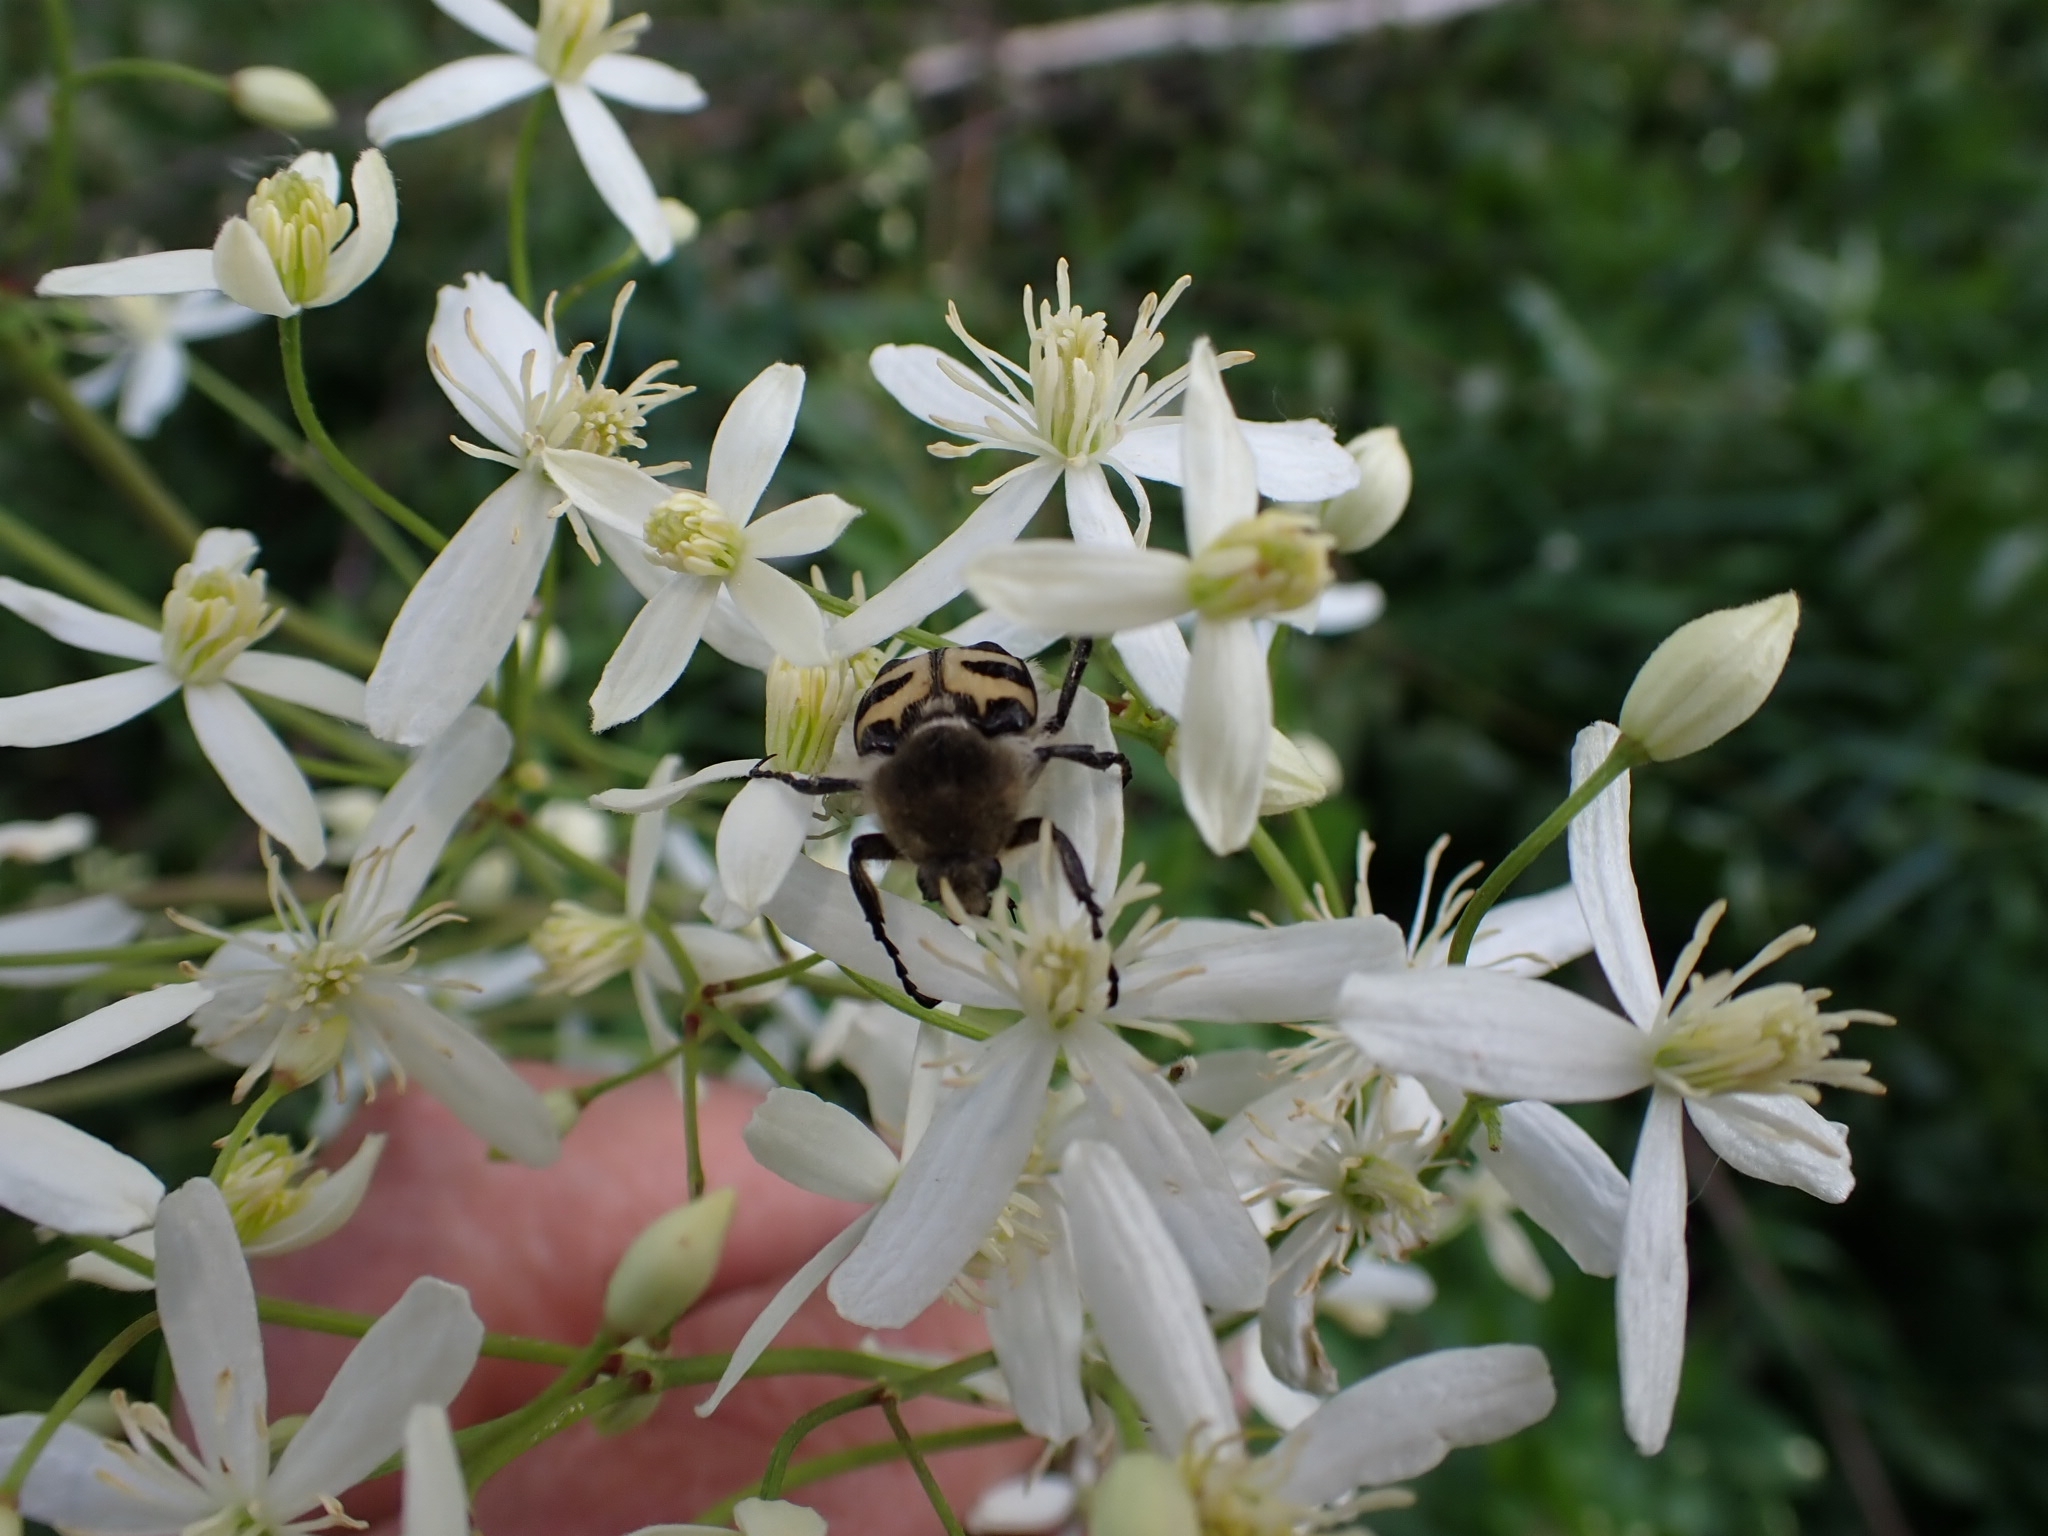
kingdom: Animalia
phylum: Arthropoda
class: Insecta
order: Coleoptera
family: Scarabaeidae
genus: Trichius
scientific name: Trichius fasciatus
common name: Bee beetle
